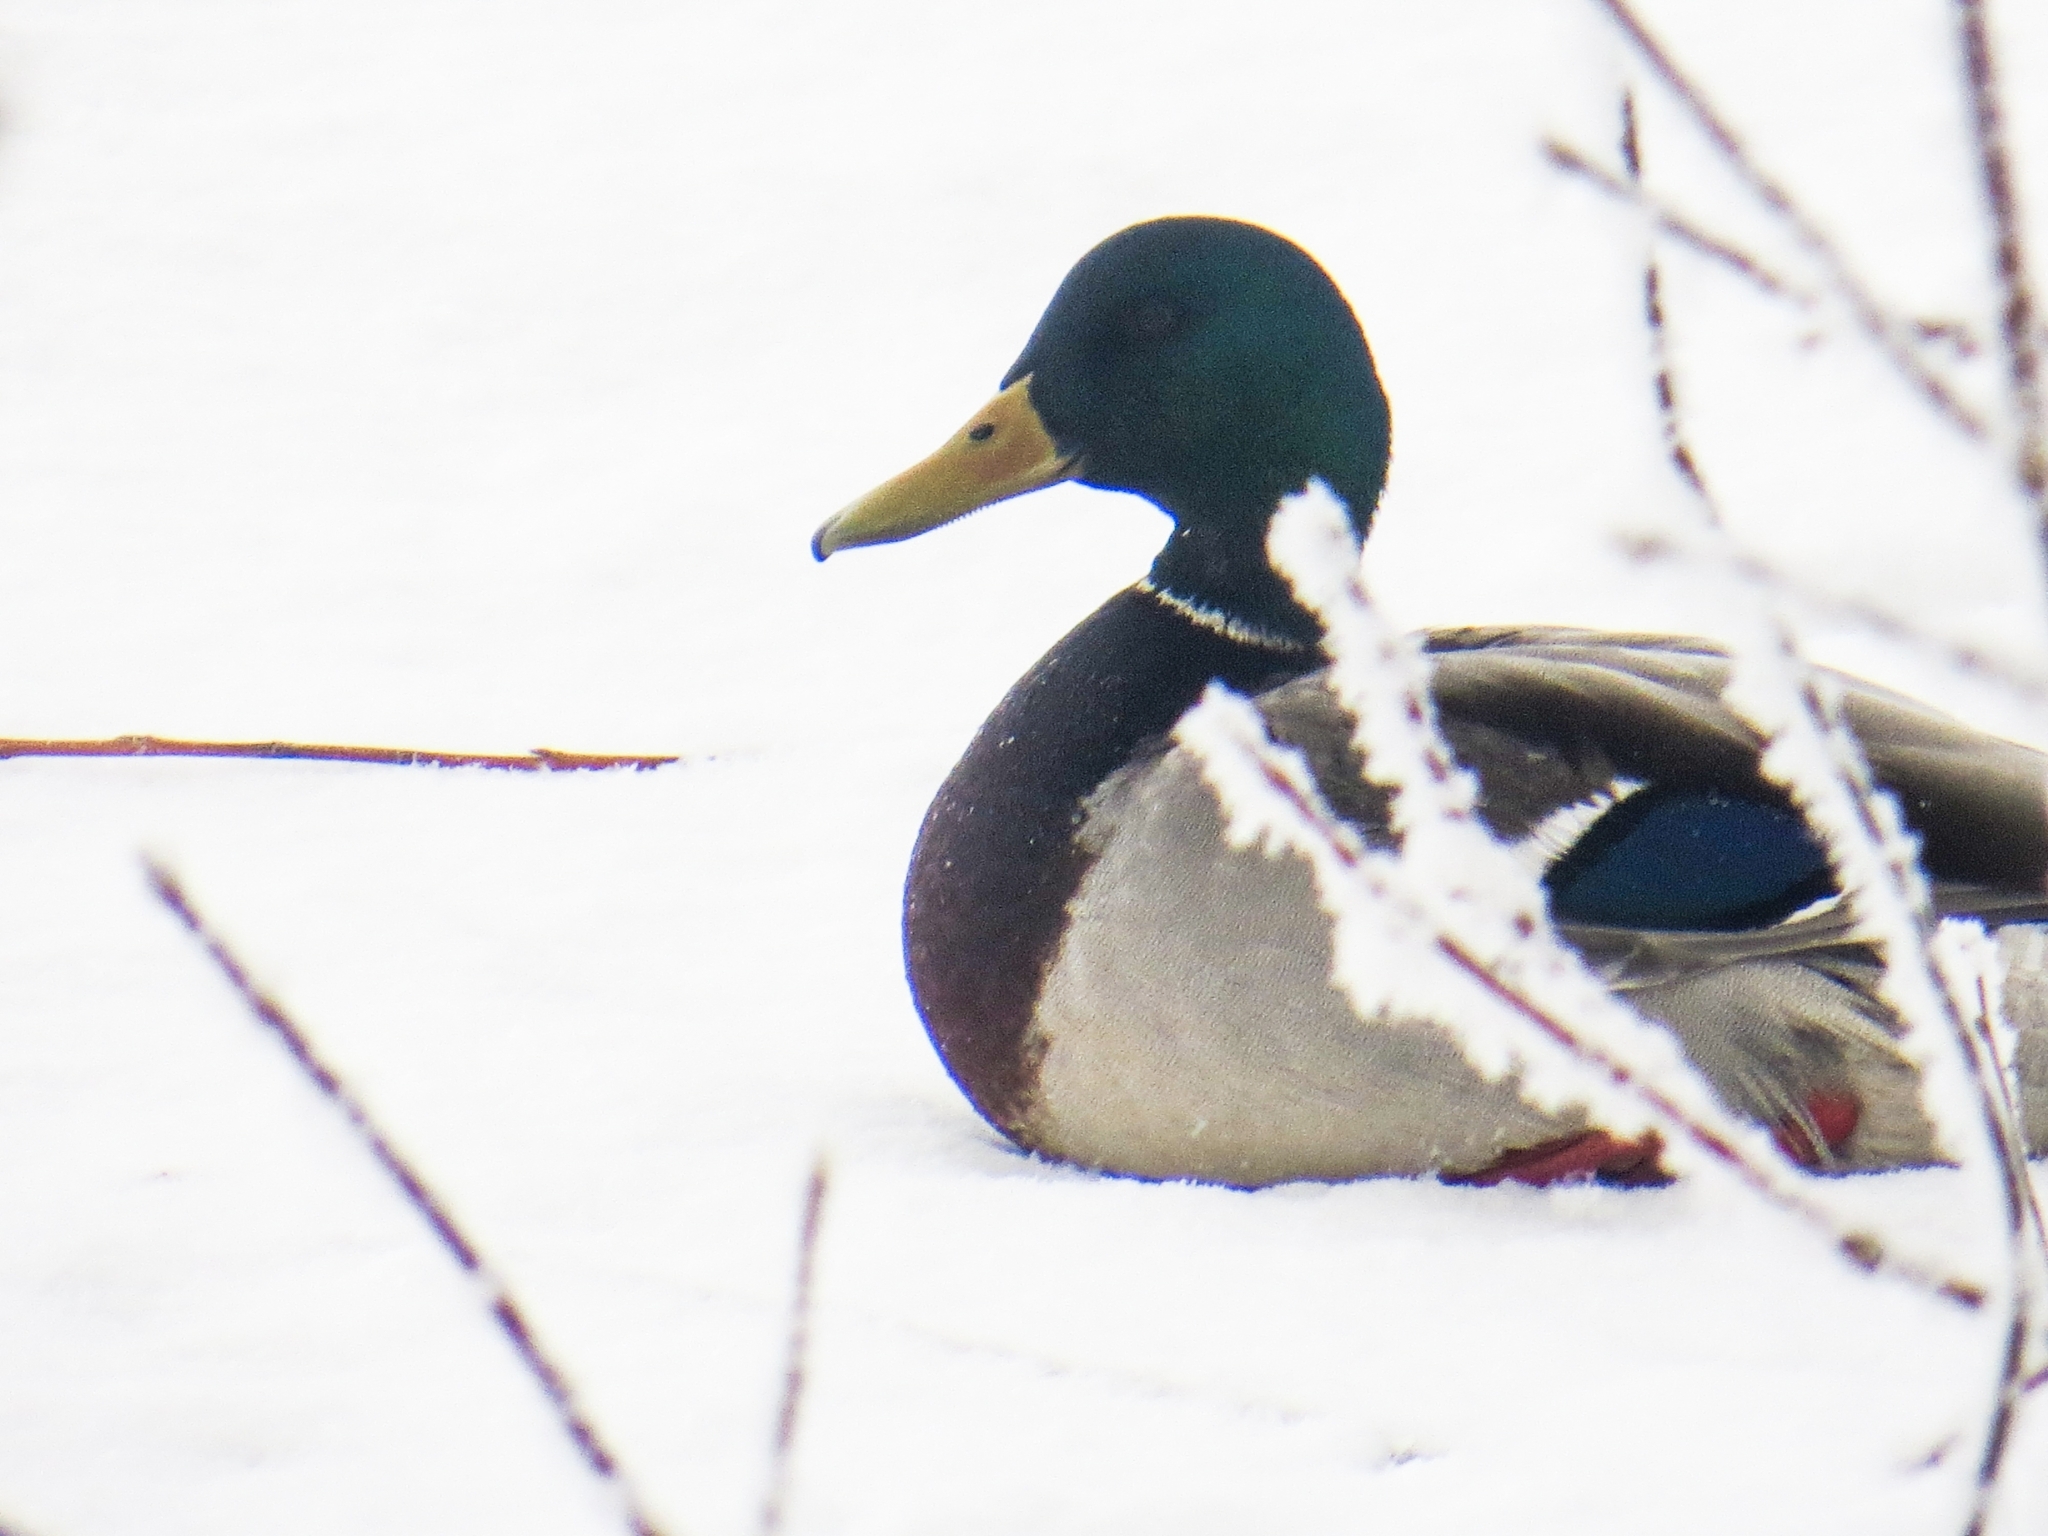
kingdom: Animalia
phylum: Chordata
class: Aves
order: Anseriformes
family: Anatidae
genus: Anas
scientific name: Anas platyrhynchos
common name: Mallard
